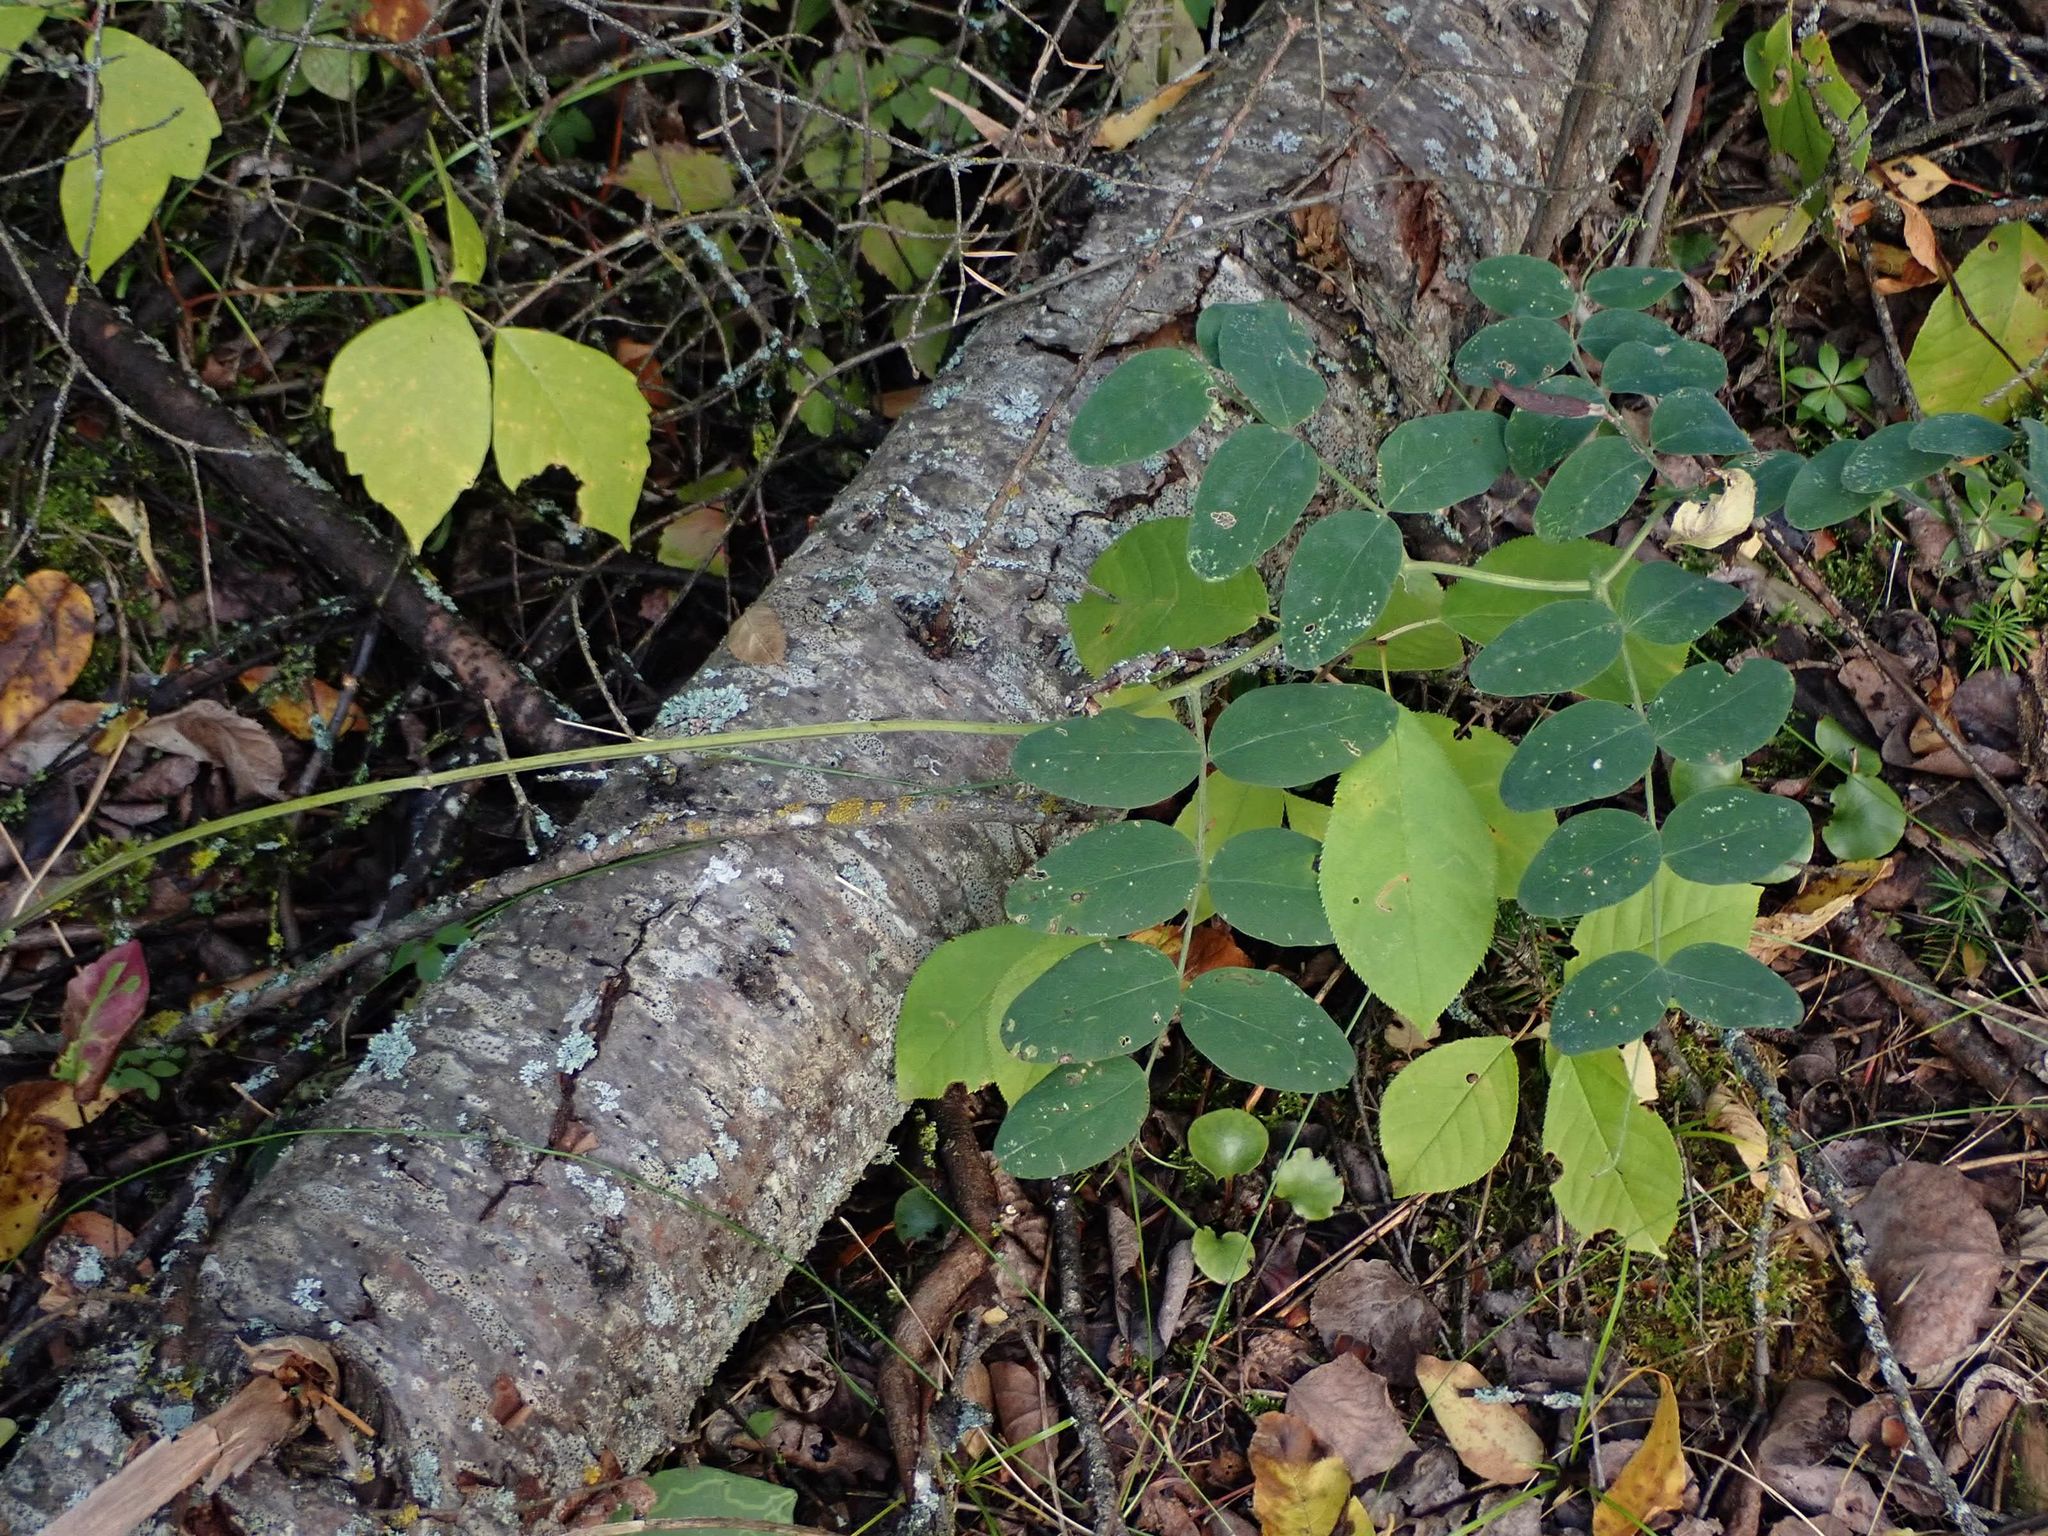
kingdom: Plantae
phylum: Tracheophyta
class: Magnoliopsida
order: Fabales
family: Fabaceae
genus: Lathyrus
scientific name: Lathyrus venosus
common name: Forest-pea
